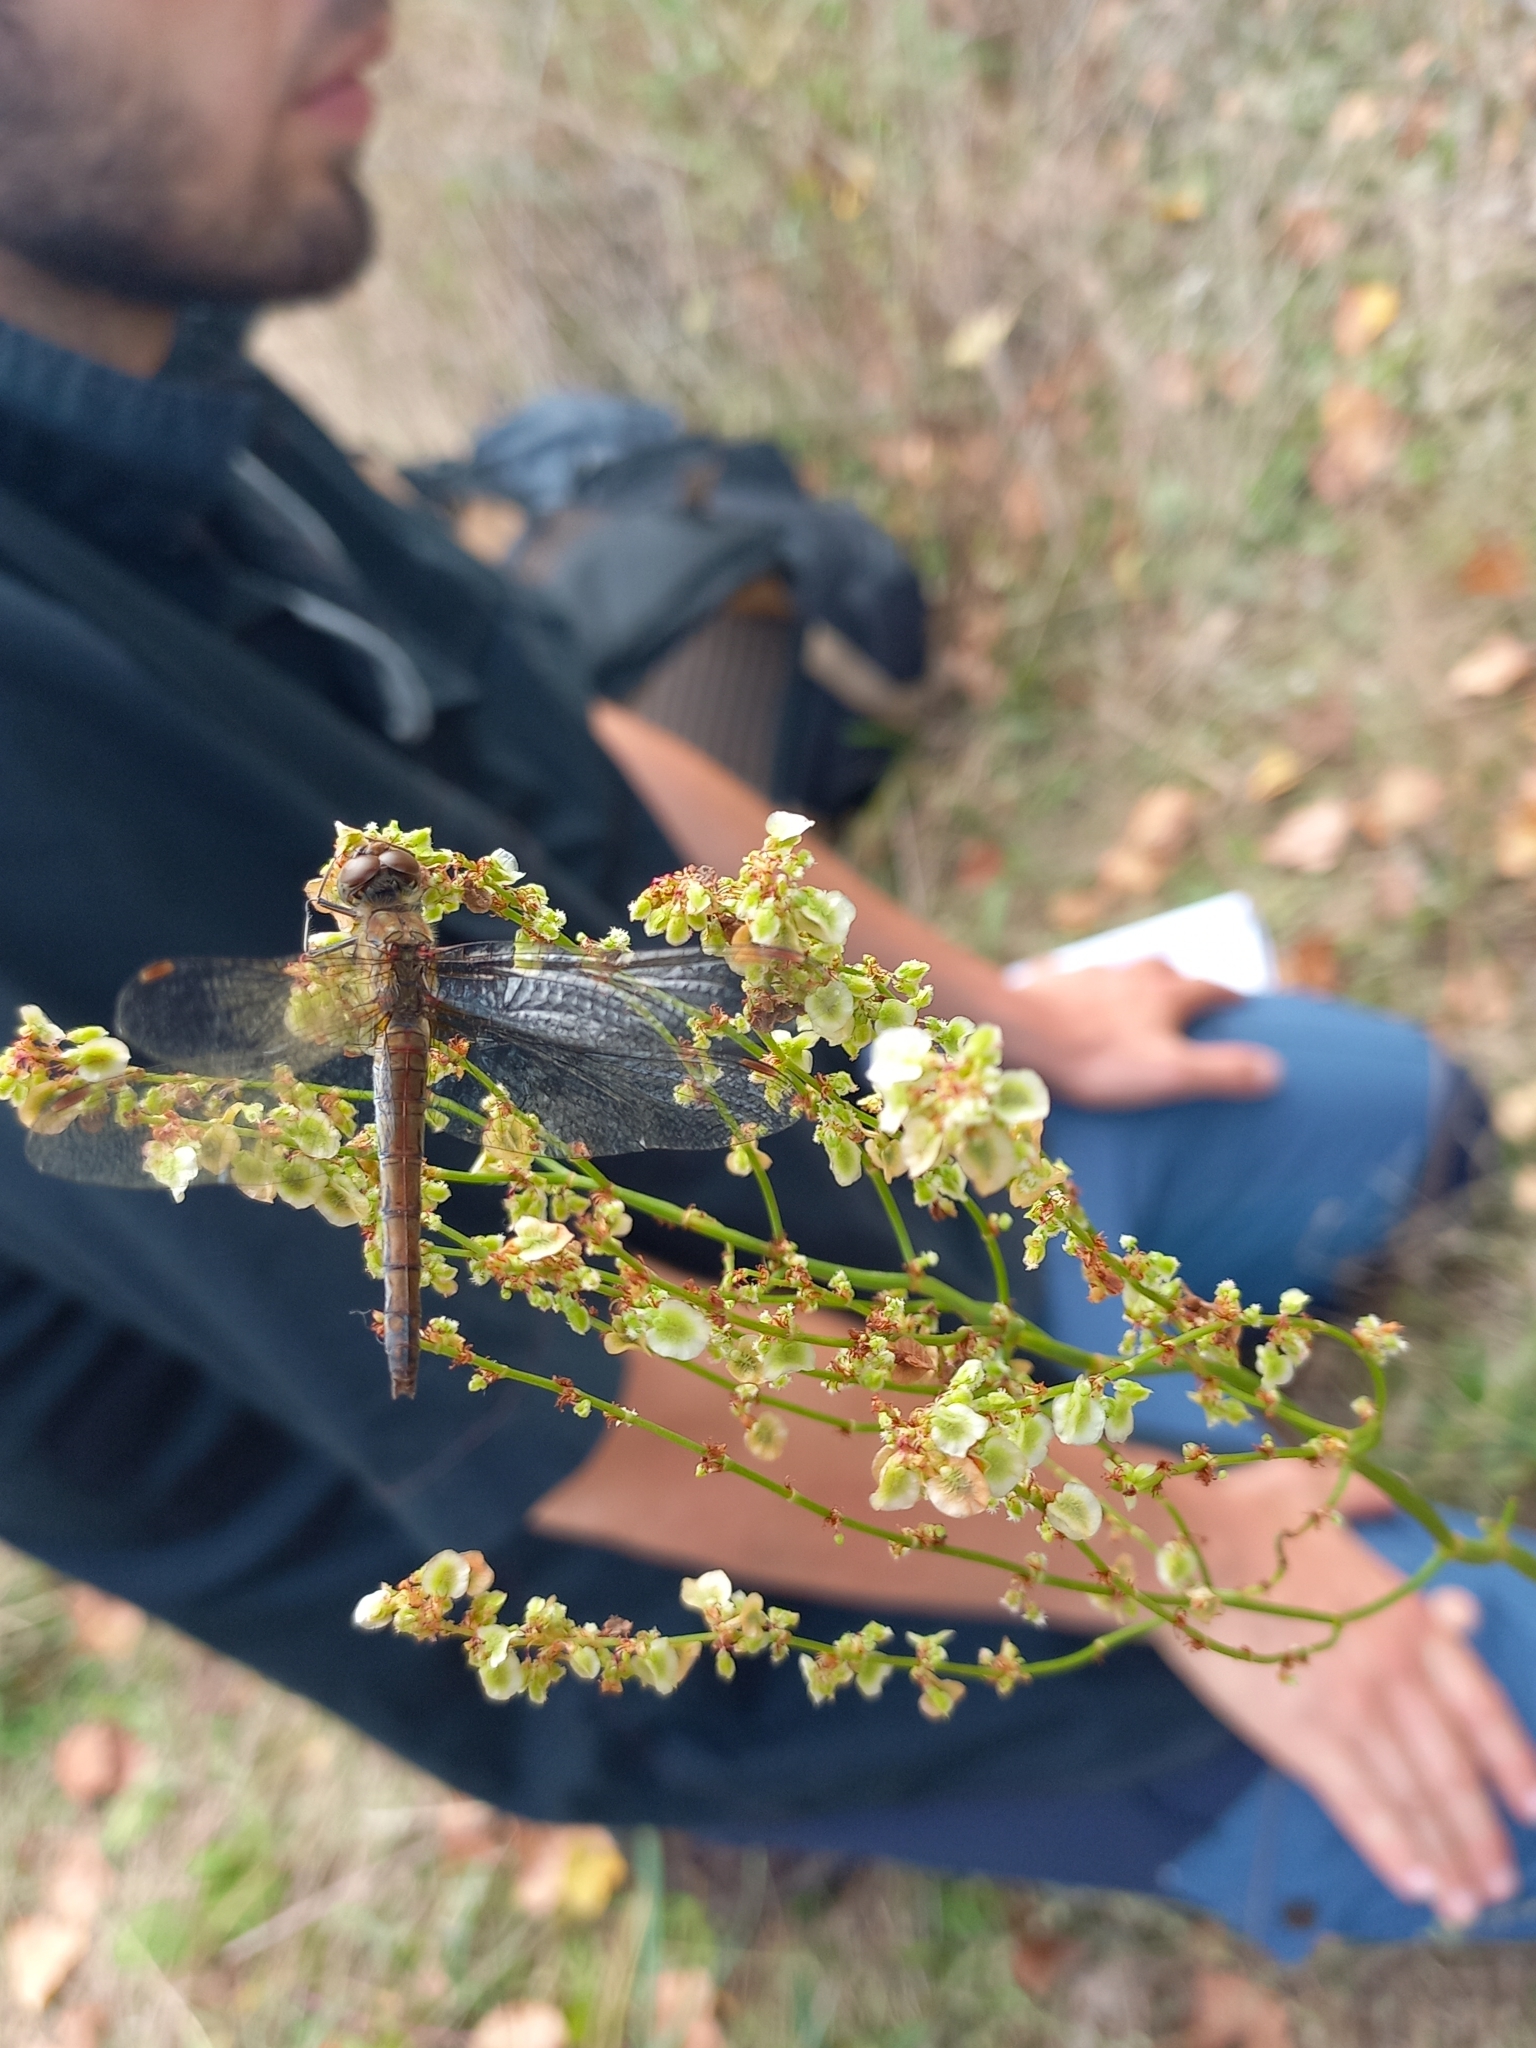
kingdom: Animalia
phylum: Arthropoda
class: Insecta
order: Odonata
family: Libellulidae
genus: Sympetrum
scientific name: Sympetrum striolatum
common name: Common darter
